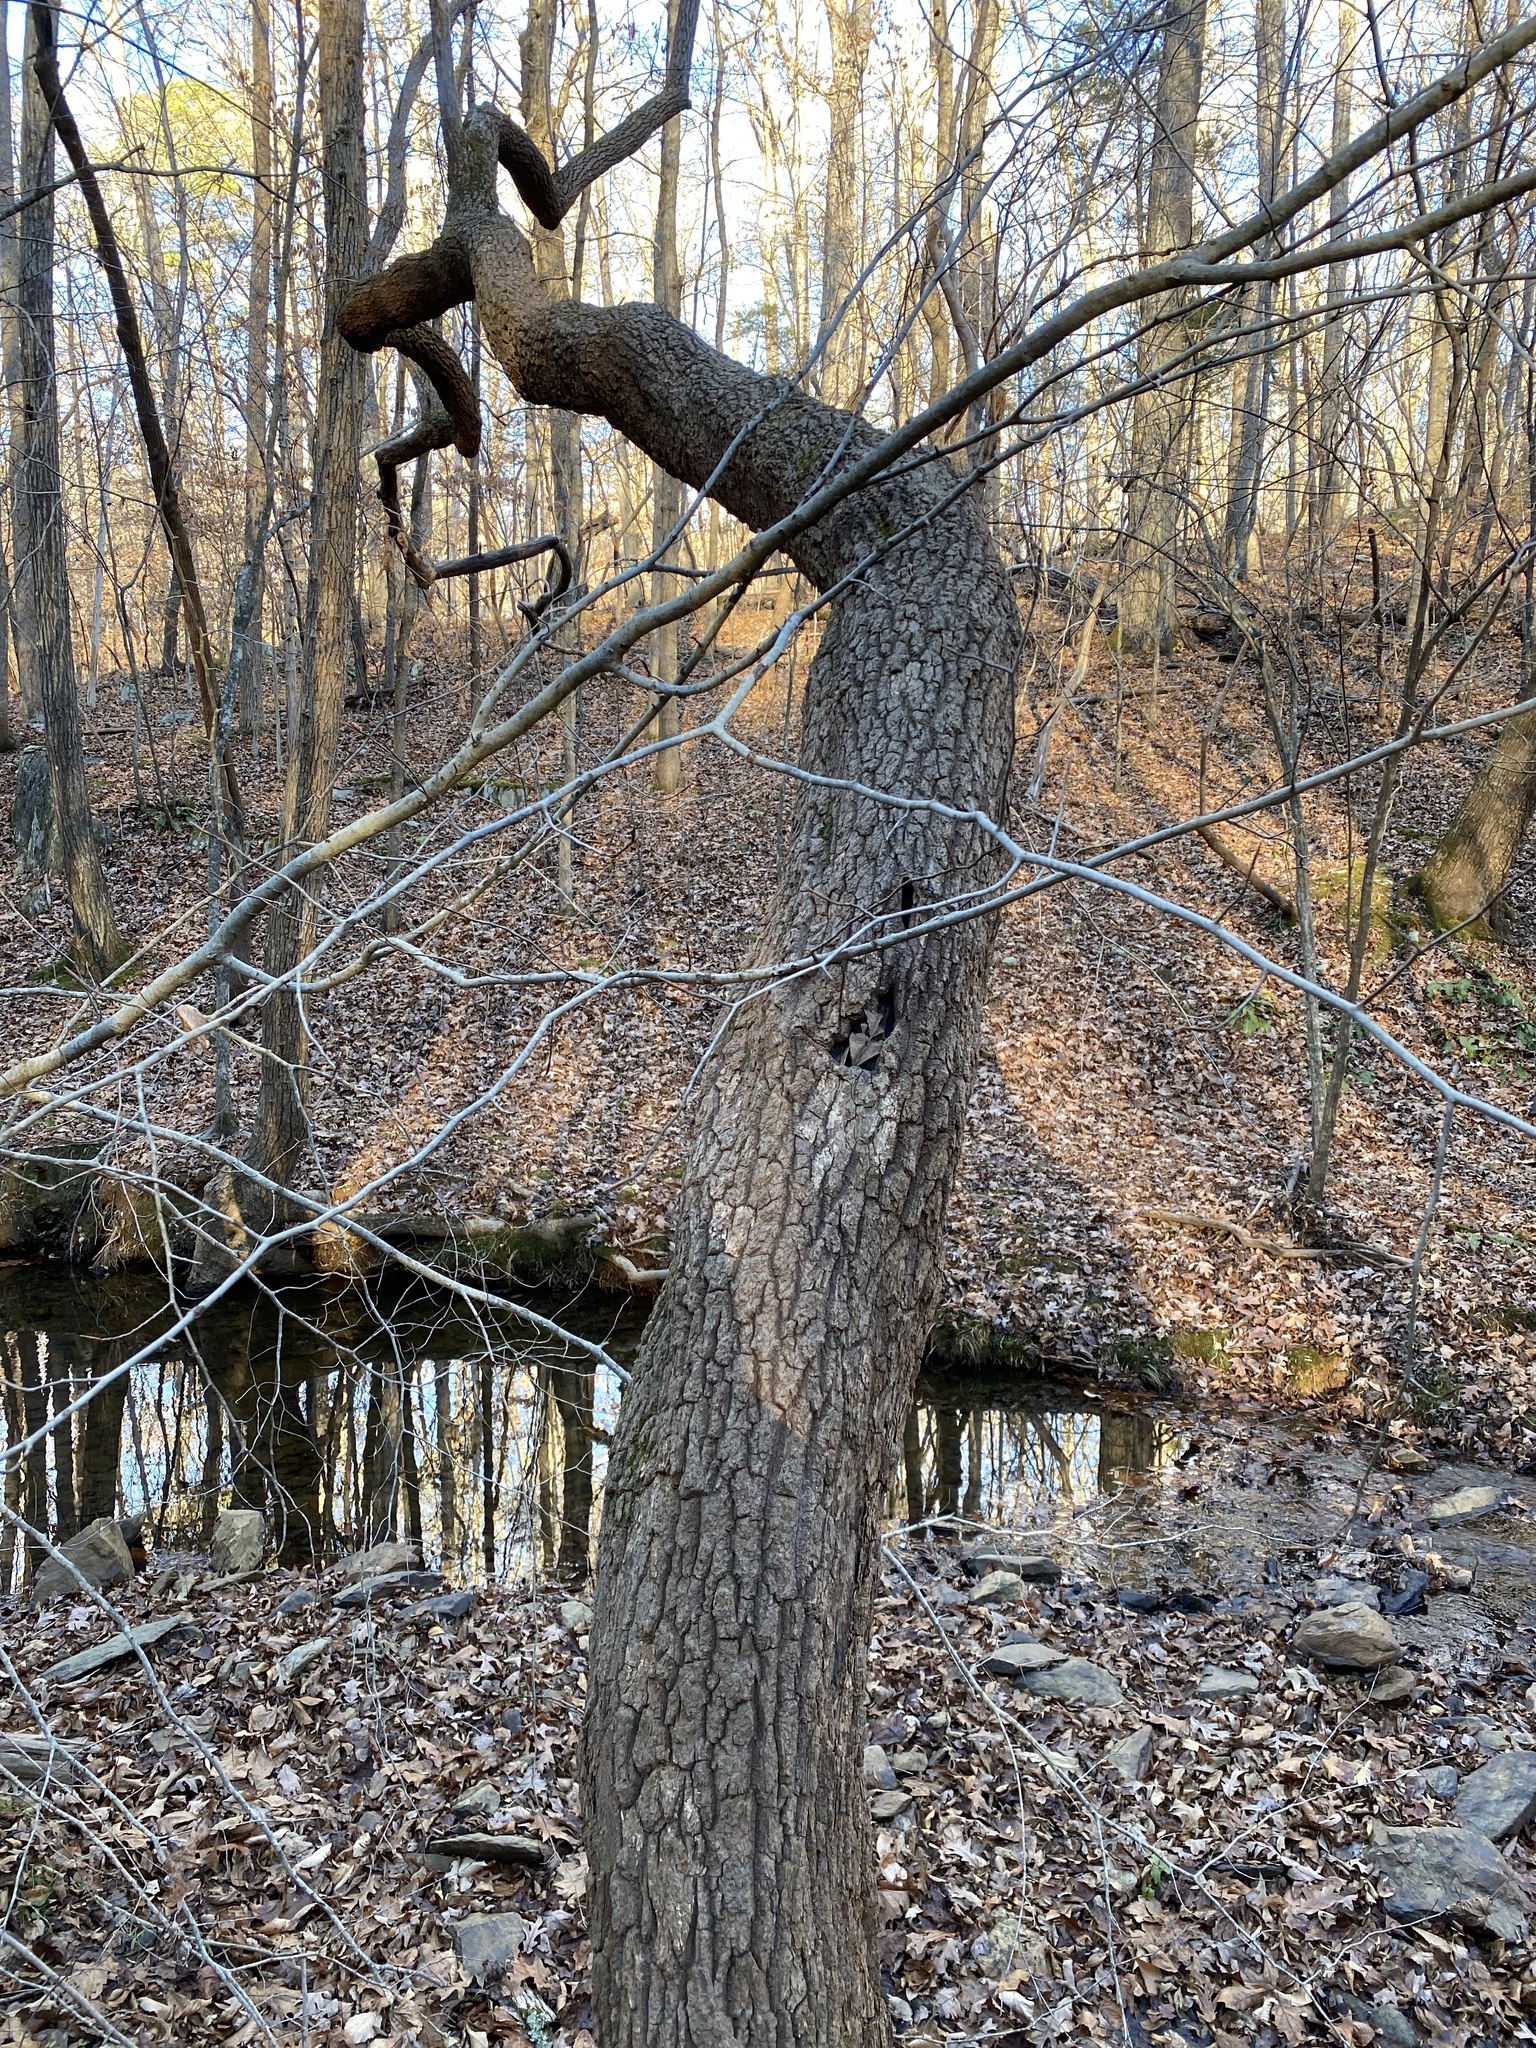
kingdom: Plantae
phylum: Tracheophyta
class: Magnoliopsida
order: Ericales
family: Ericaceae
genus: Oxydendrum
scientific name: Oxydendrum arboreum
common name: Sourwood
